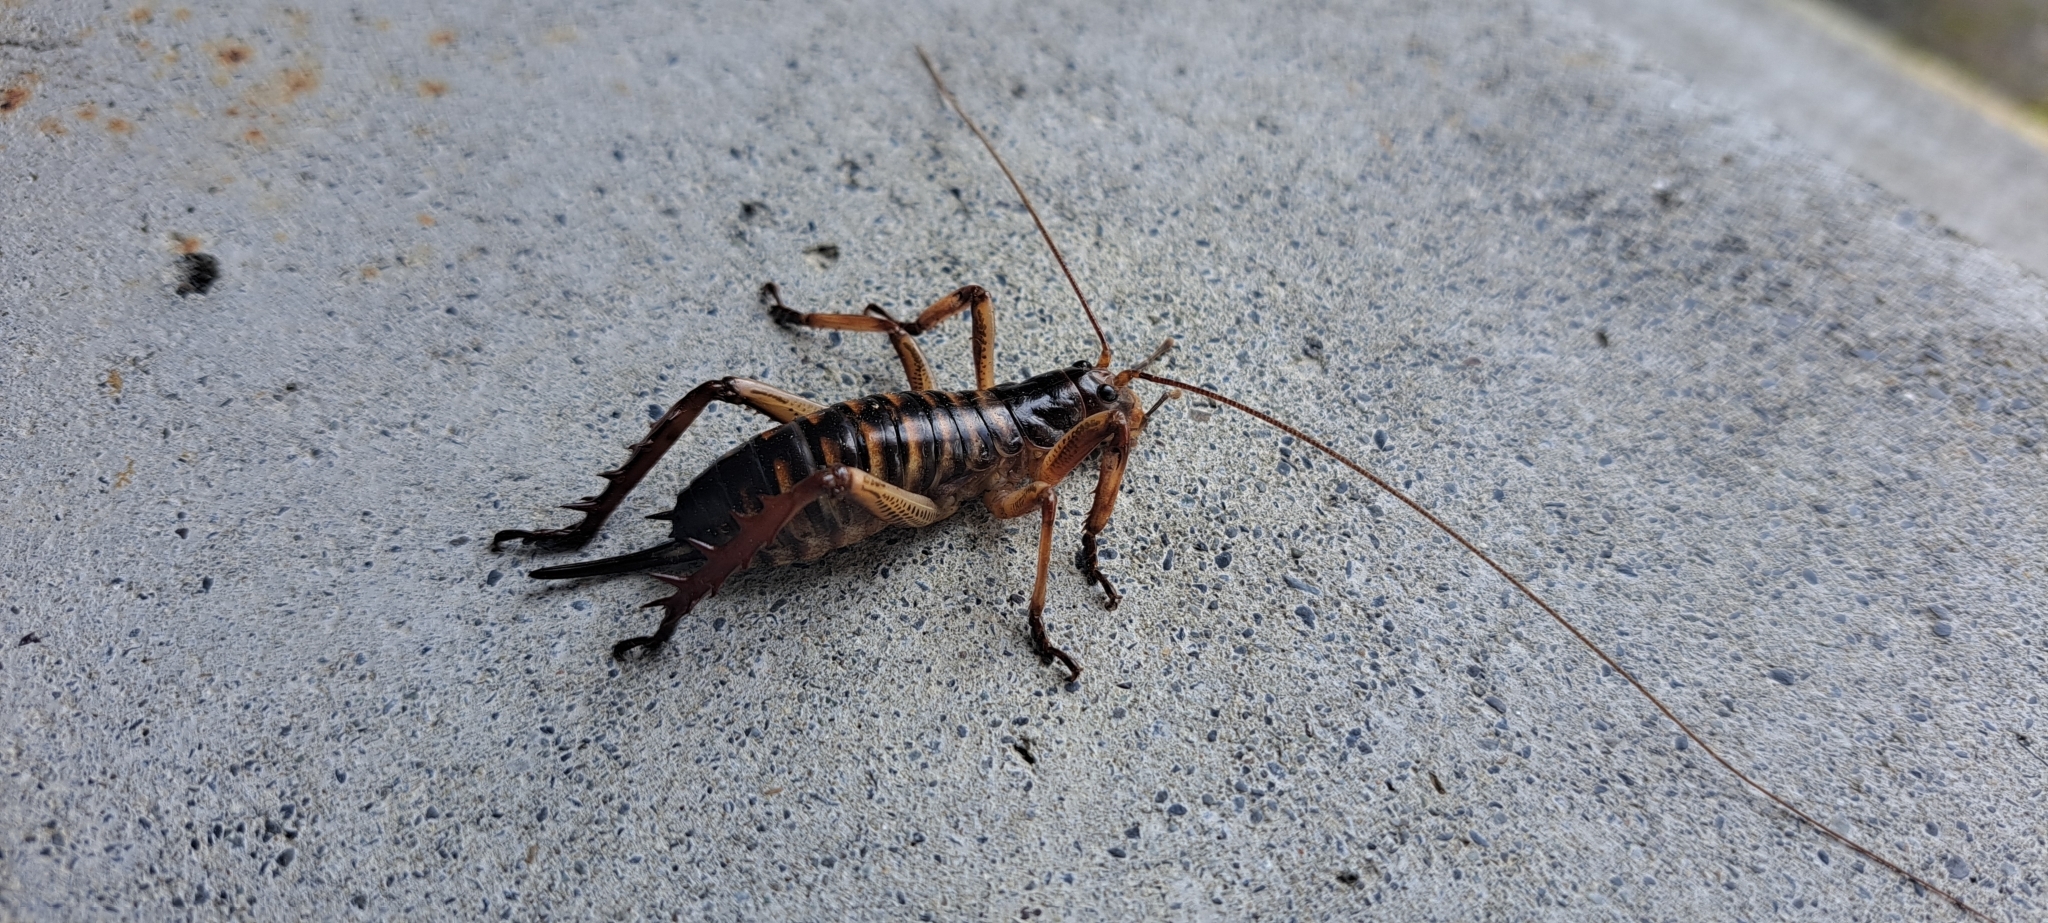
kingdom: Animalia
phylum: Arthropoda
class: Insecta
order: Orthoptera
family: Anostostomatidae
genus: Hemideina
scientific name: Hemideina crassidens
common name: Wellington tree weta
